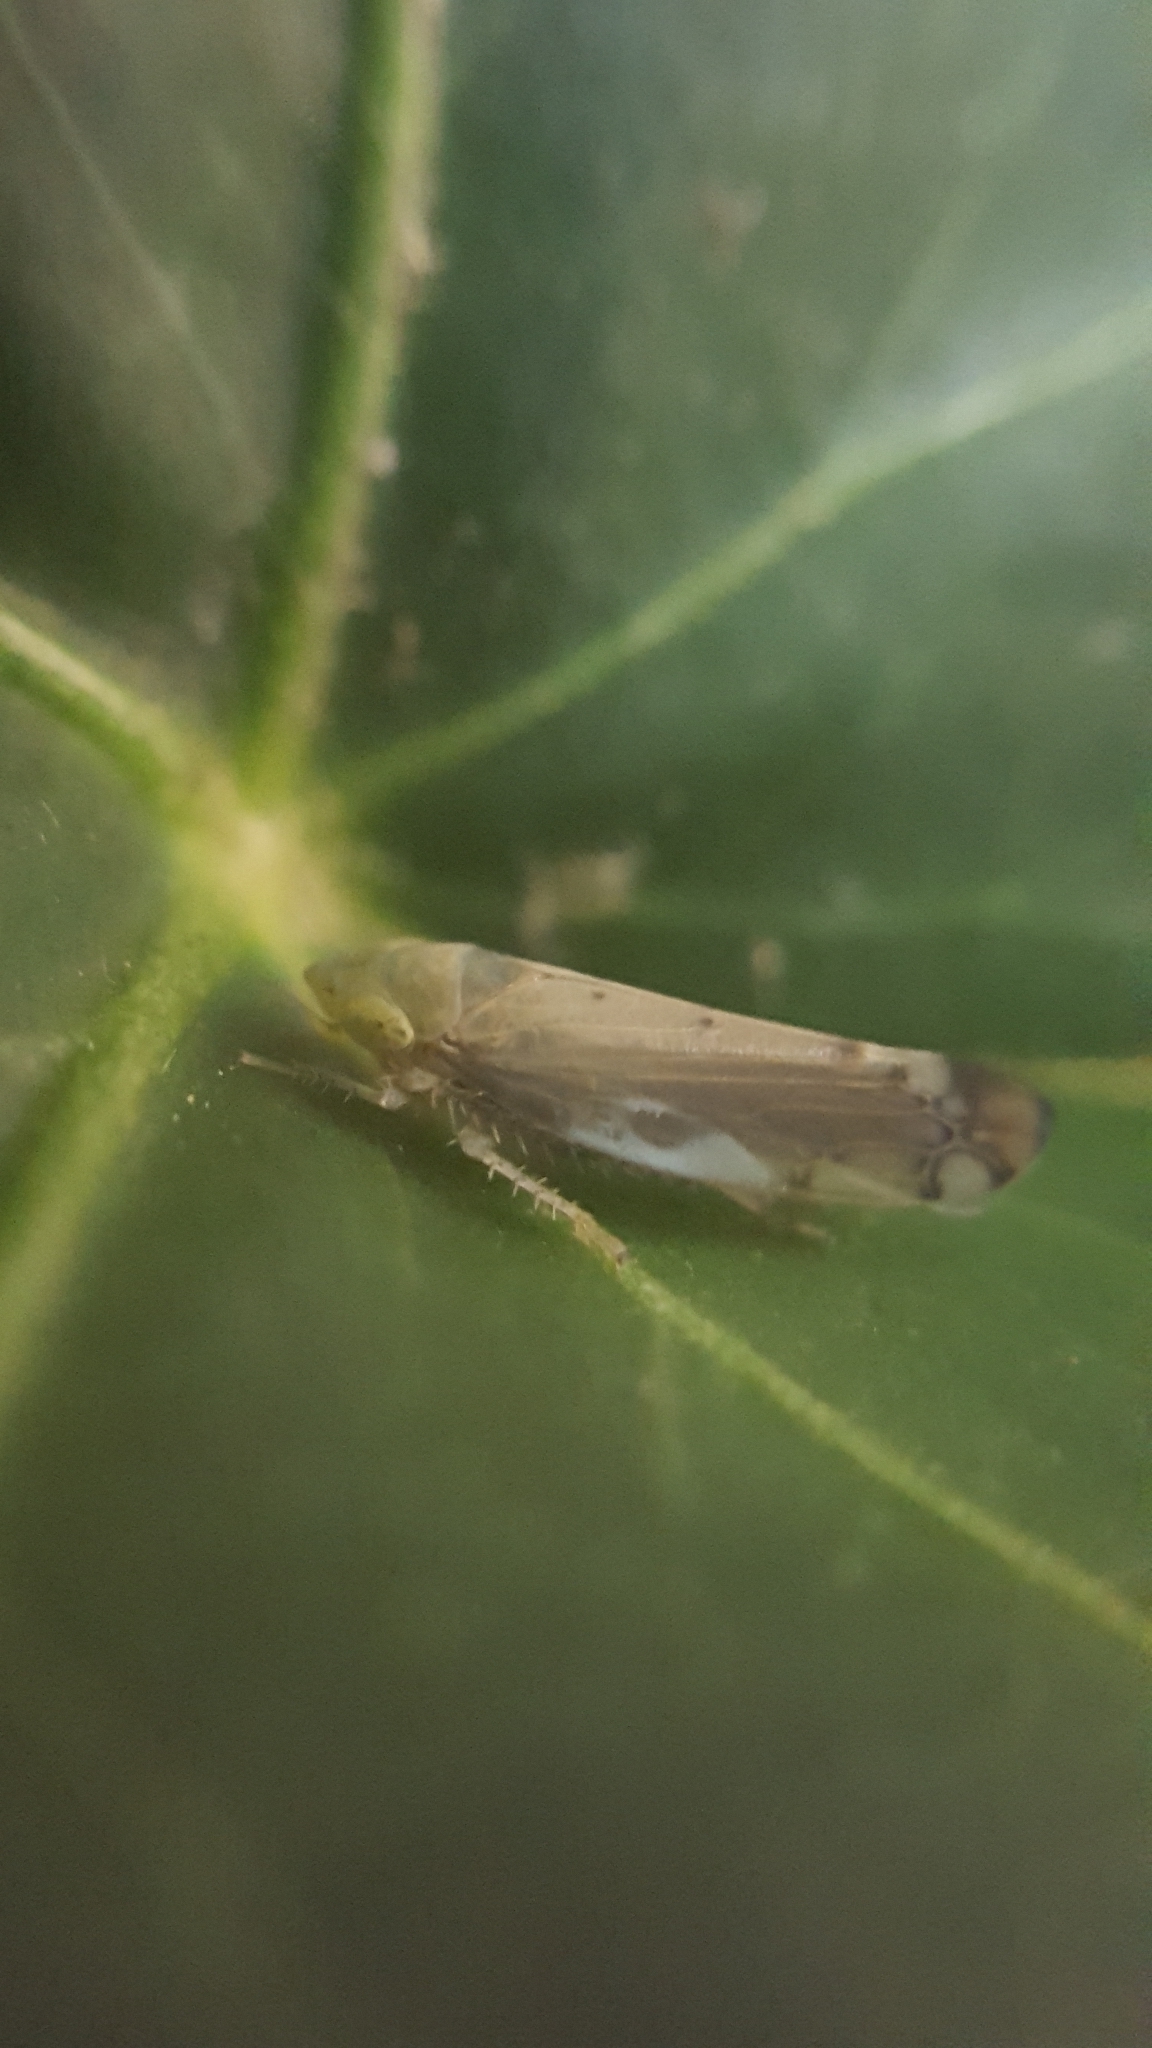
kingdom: Animalia
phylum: Arthropoda
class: Insecta
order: Hemiptera
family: Cicadellidae
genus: Synophropsis
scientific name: Synophropsis lauri
